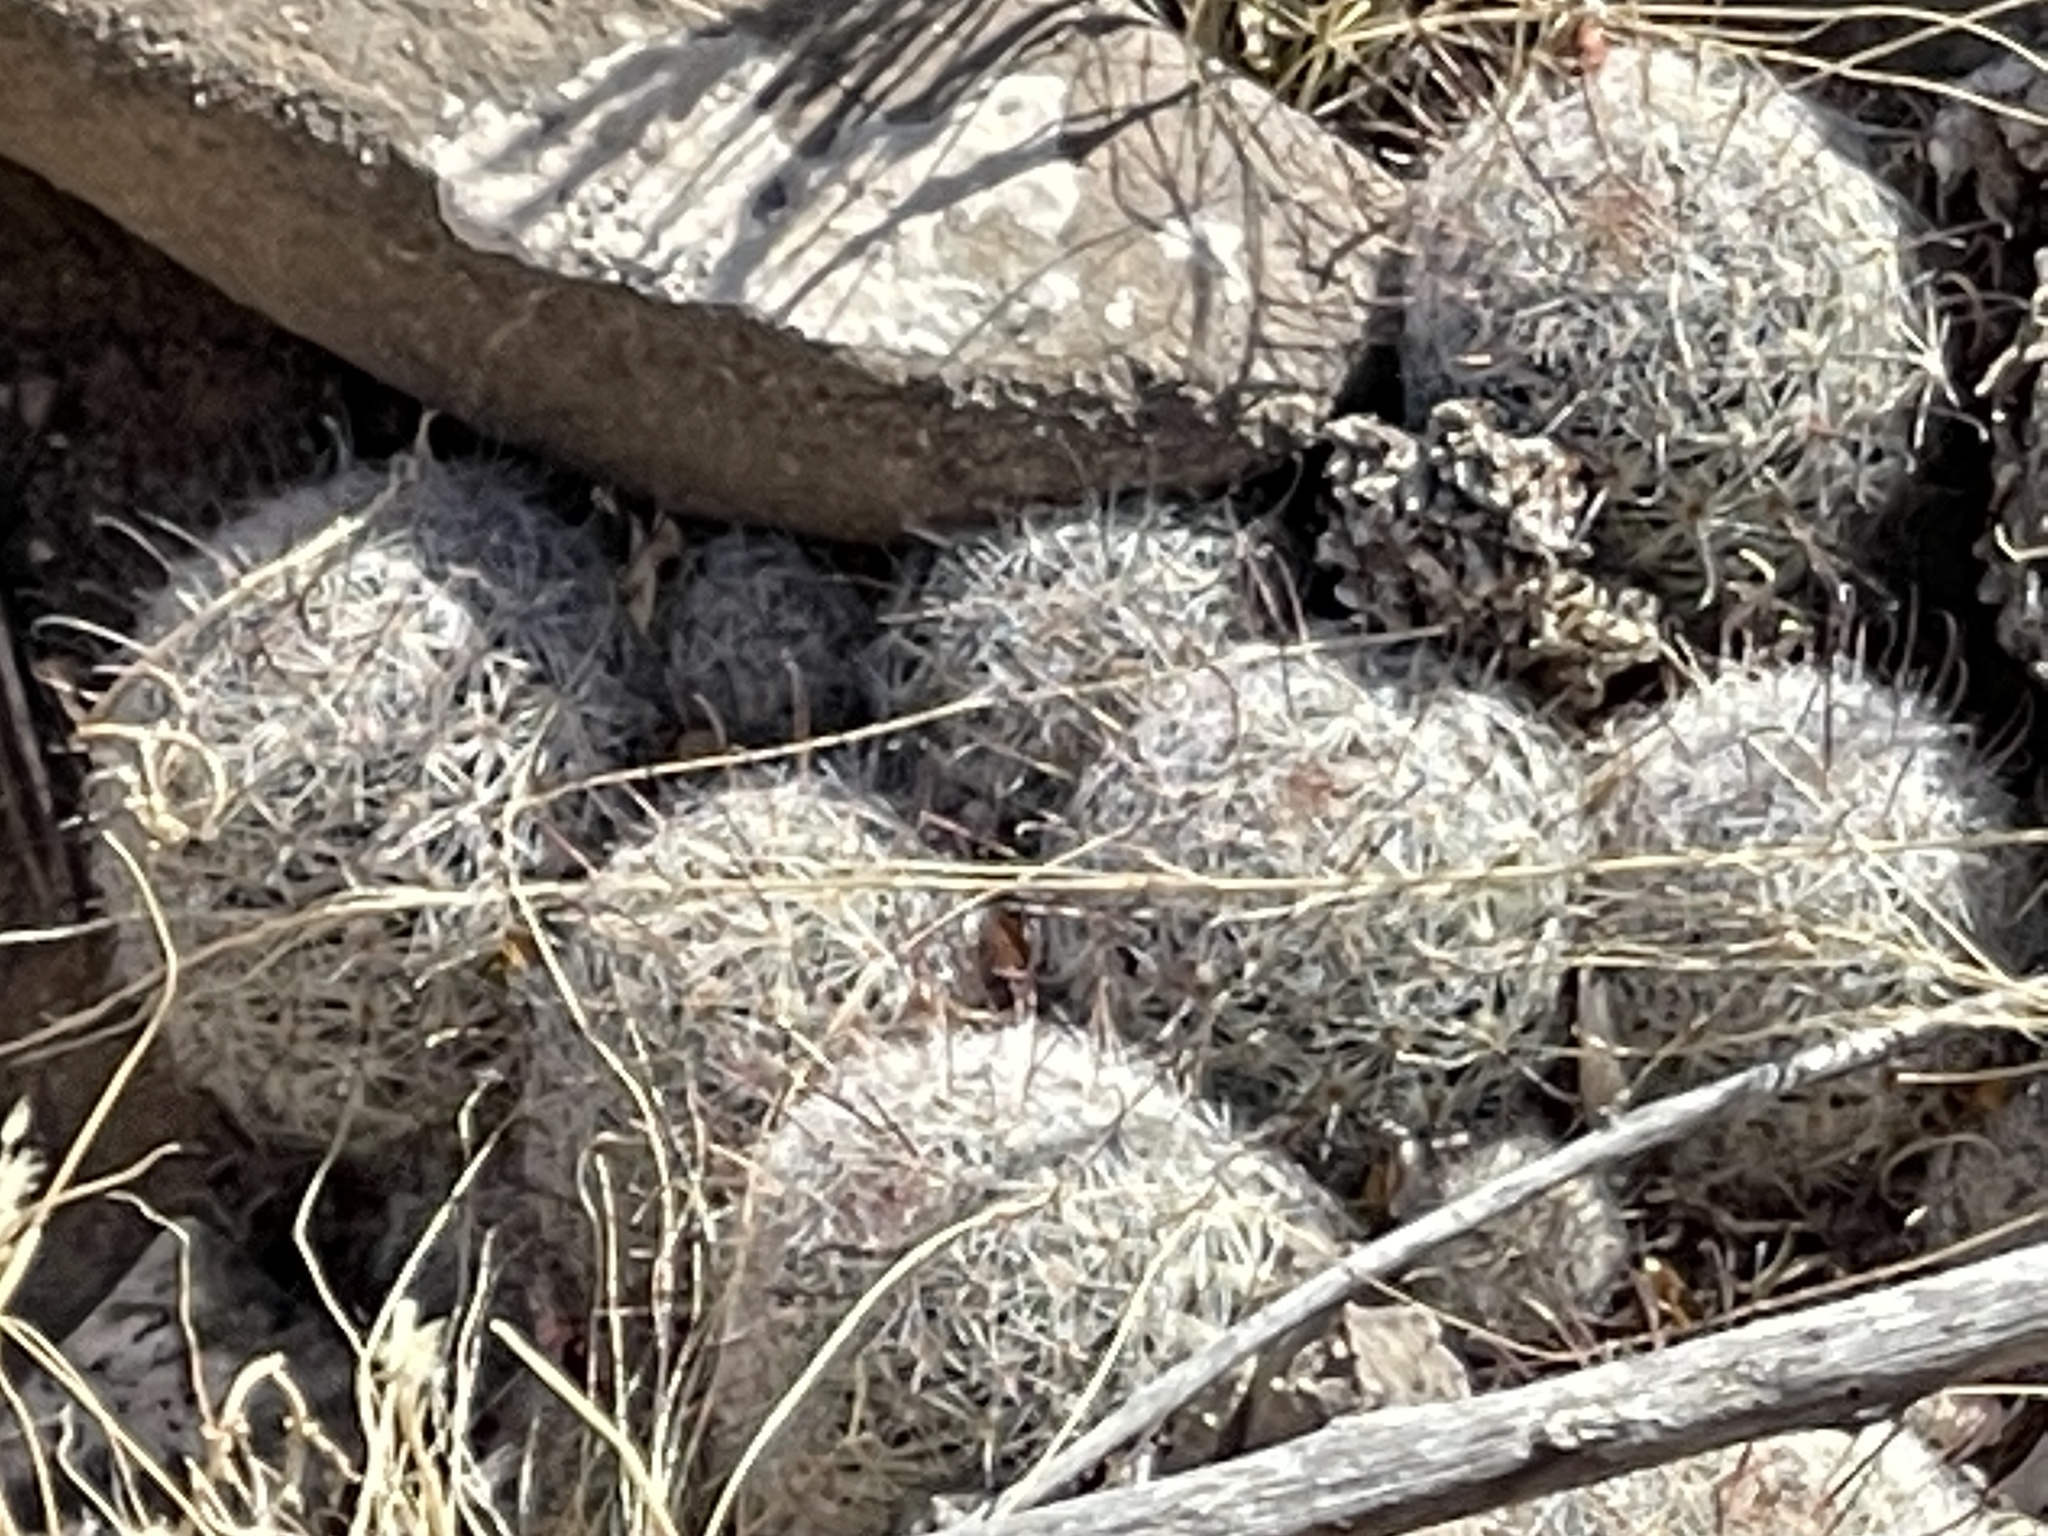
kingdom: Plantae
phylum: Tracheophyta
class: Magnoliopsida
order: Caryophyllales
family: Cactaceae
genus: Cochemiea
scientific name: Cochemiea grahamii
